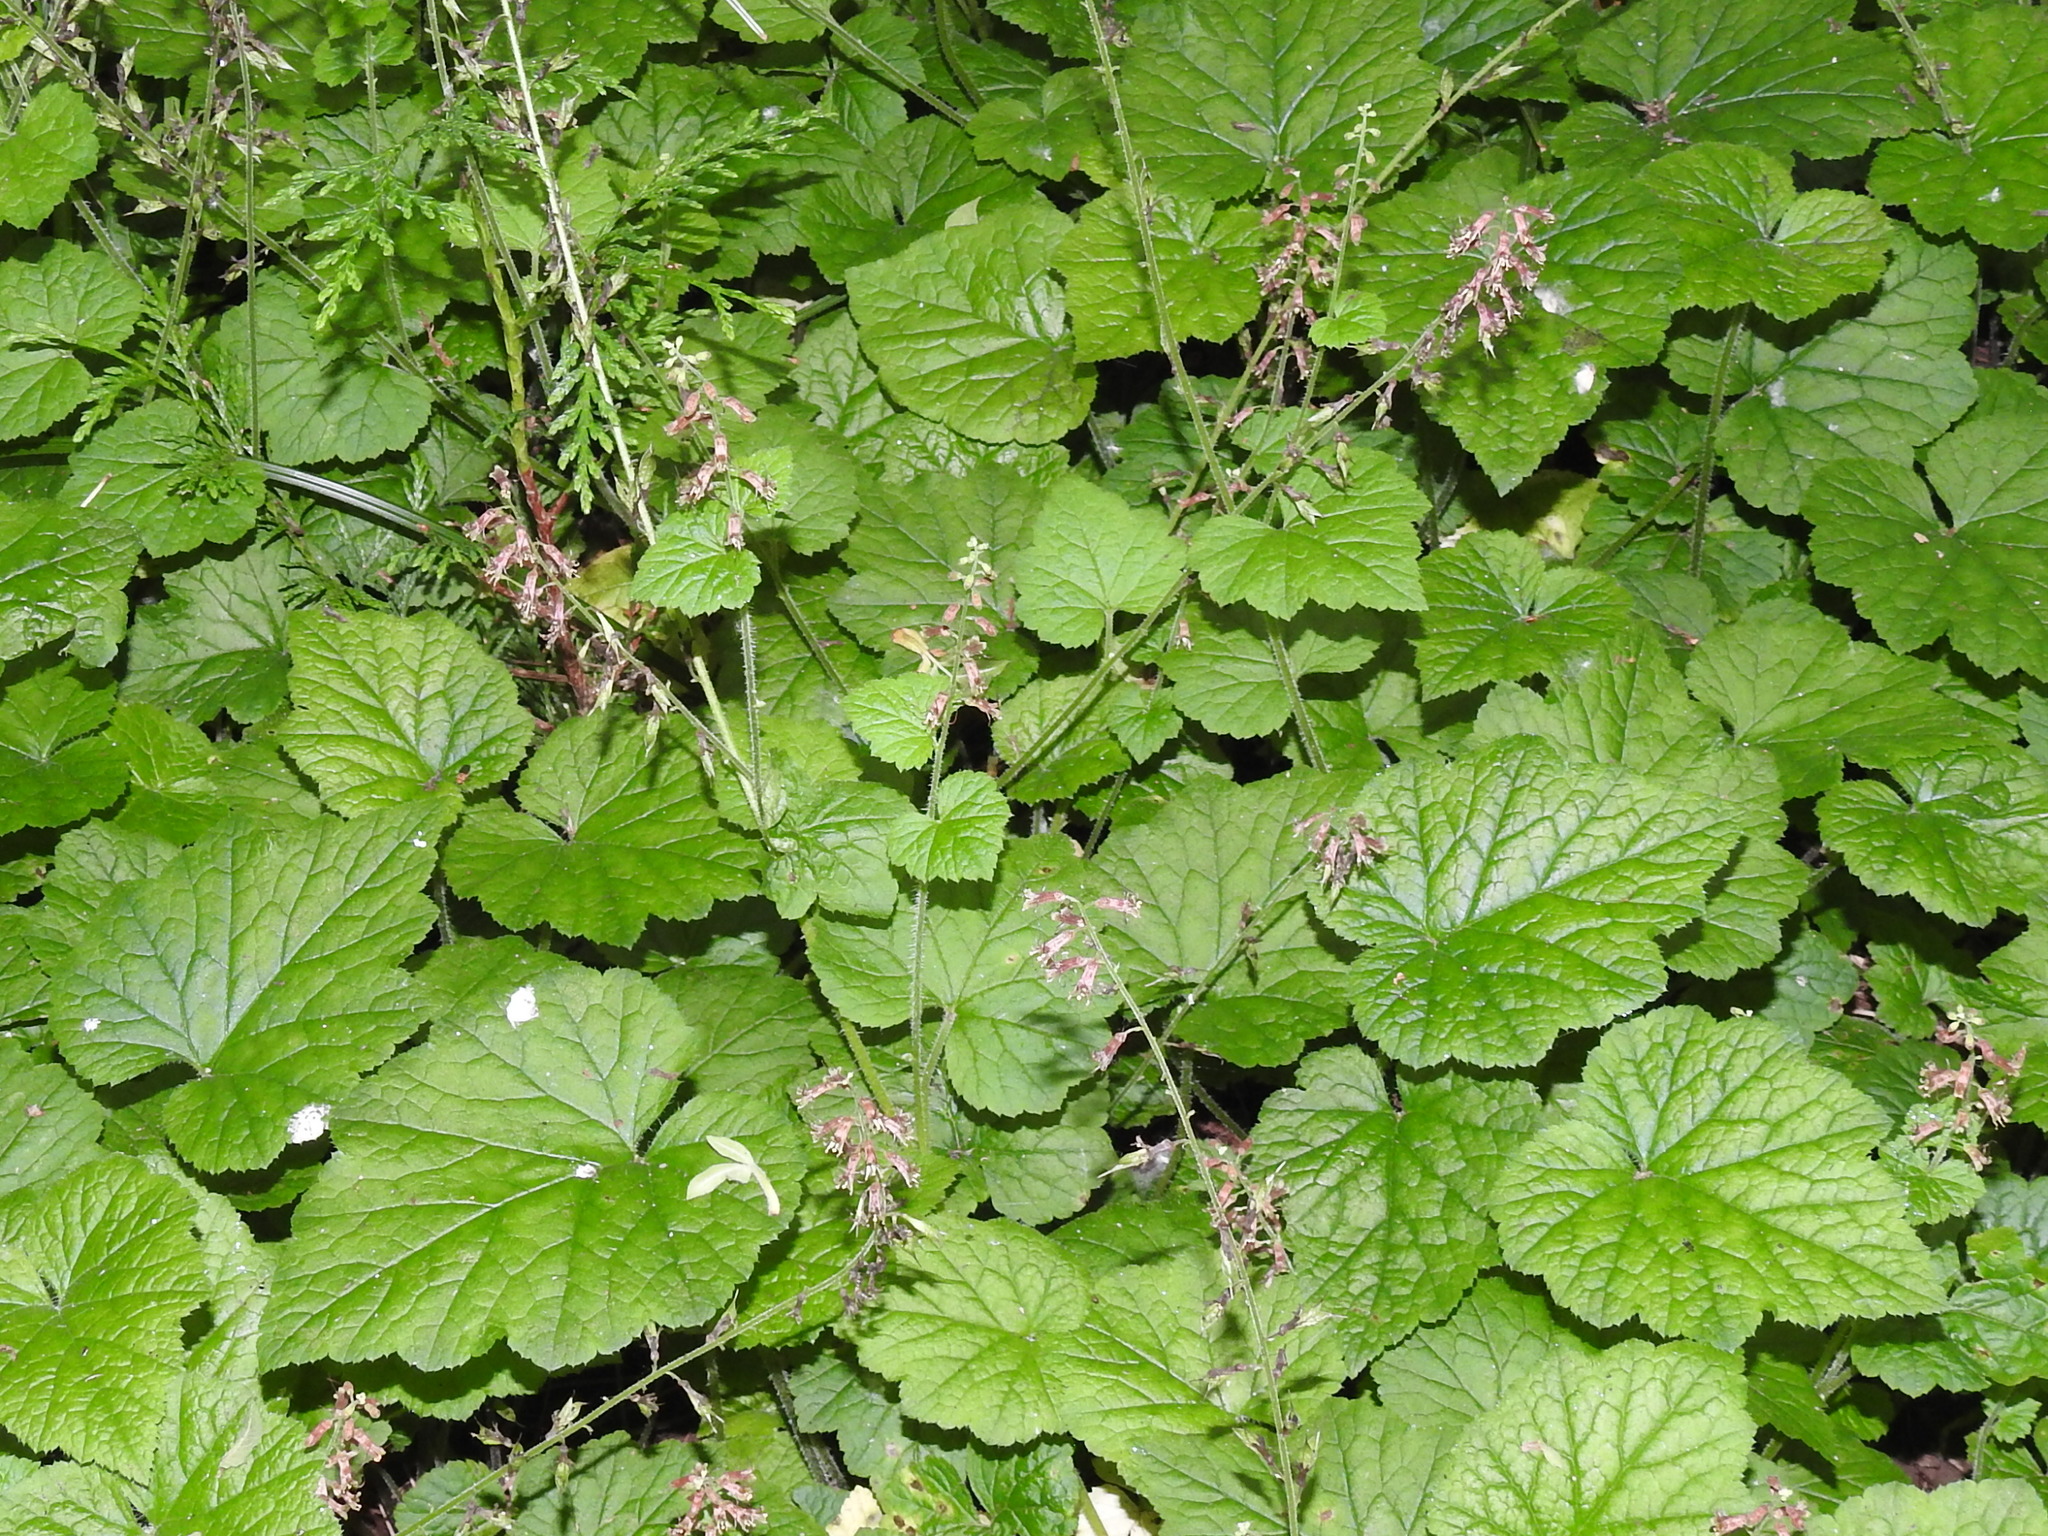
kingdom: Plantae
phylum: Tracheophyta
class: Magnoliopsida
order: Saxifragales
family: Saxifragaceae
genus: Tolmiea
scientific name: Tolmiea menziesii
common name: Pick-a-back-plant
